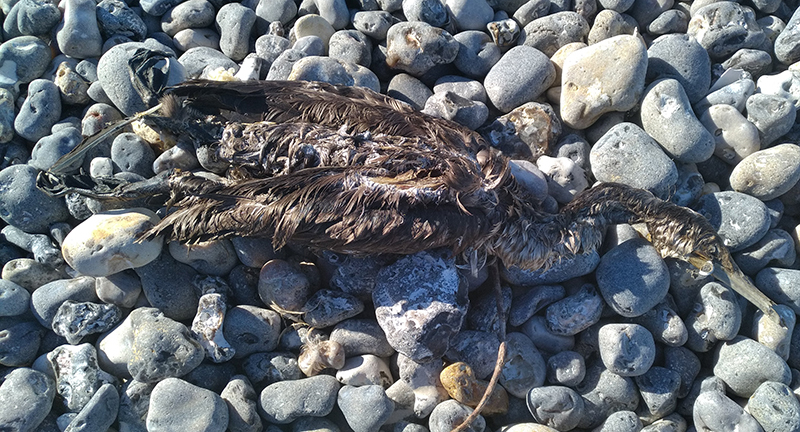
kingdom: Animalia
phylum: Chordata
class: Aves
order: Suliformes
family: Phalacrocoracidae
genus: Phalacrocorax
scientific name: Phalacrocorax carbo
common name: Great cormorant
